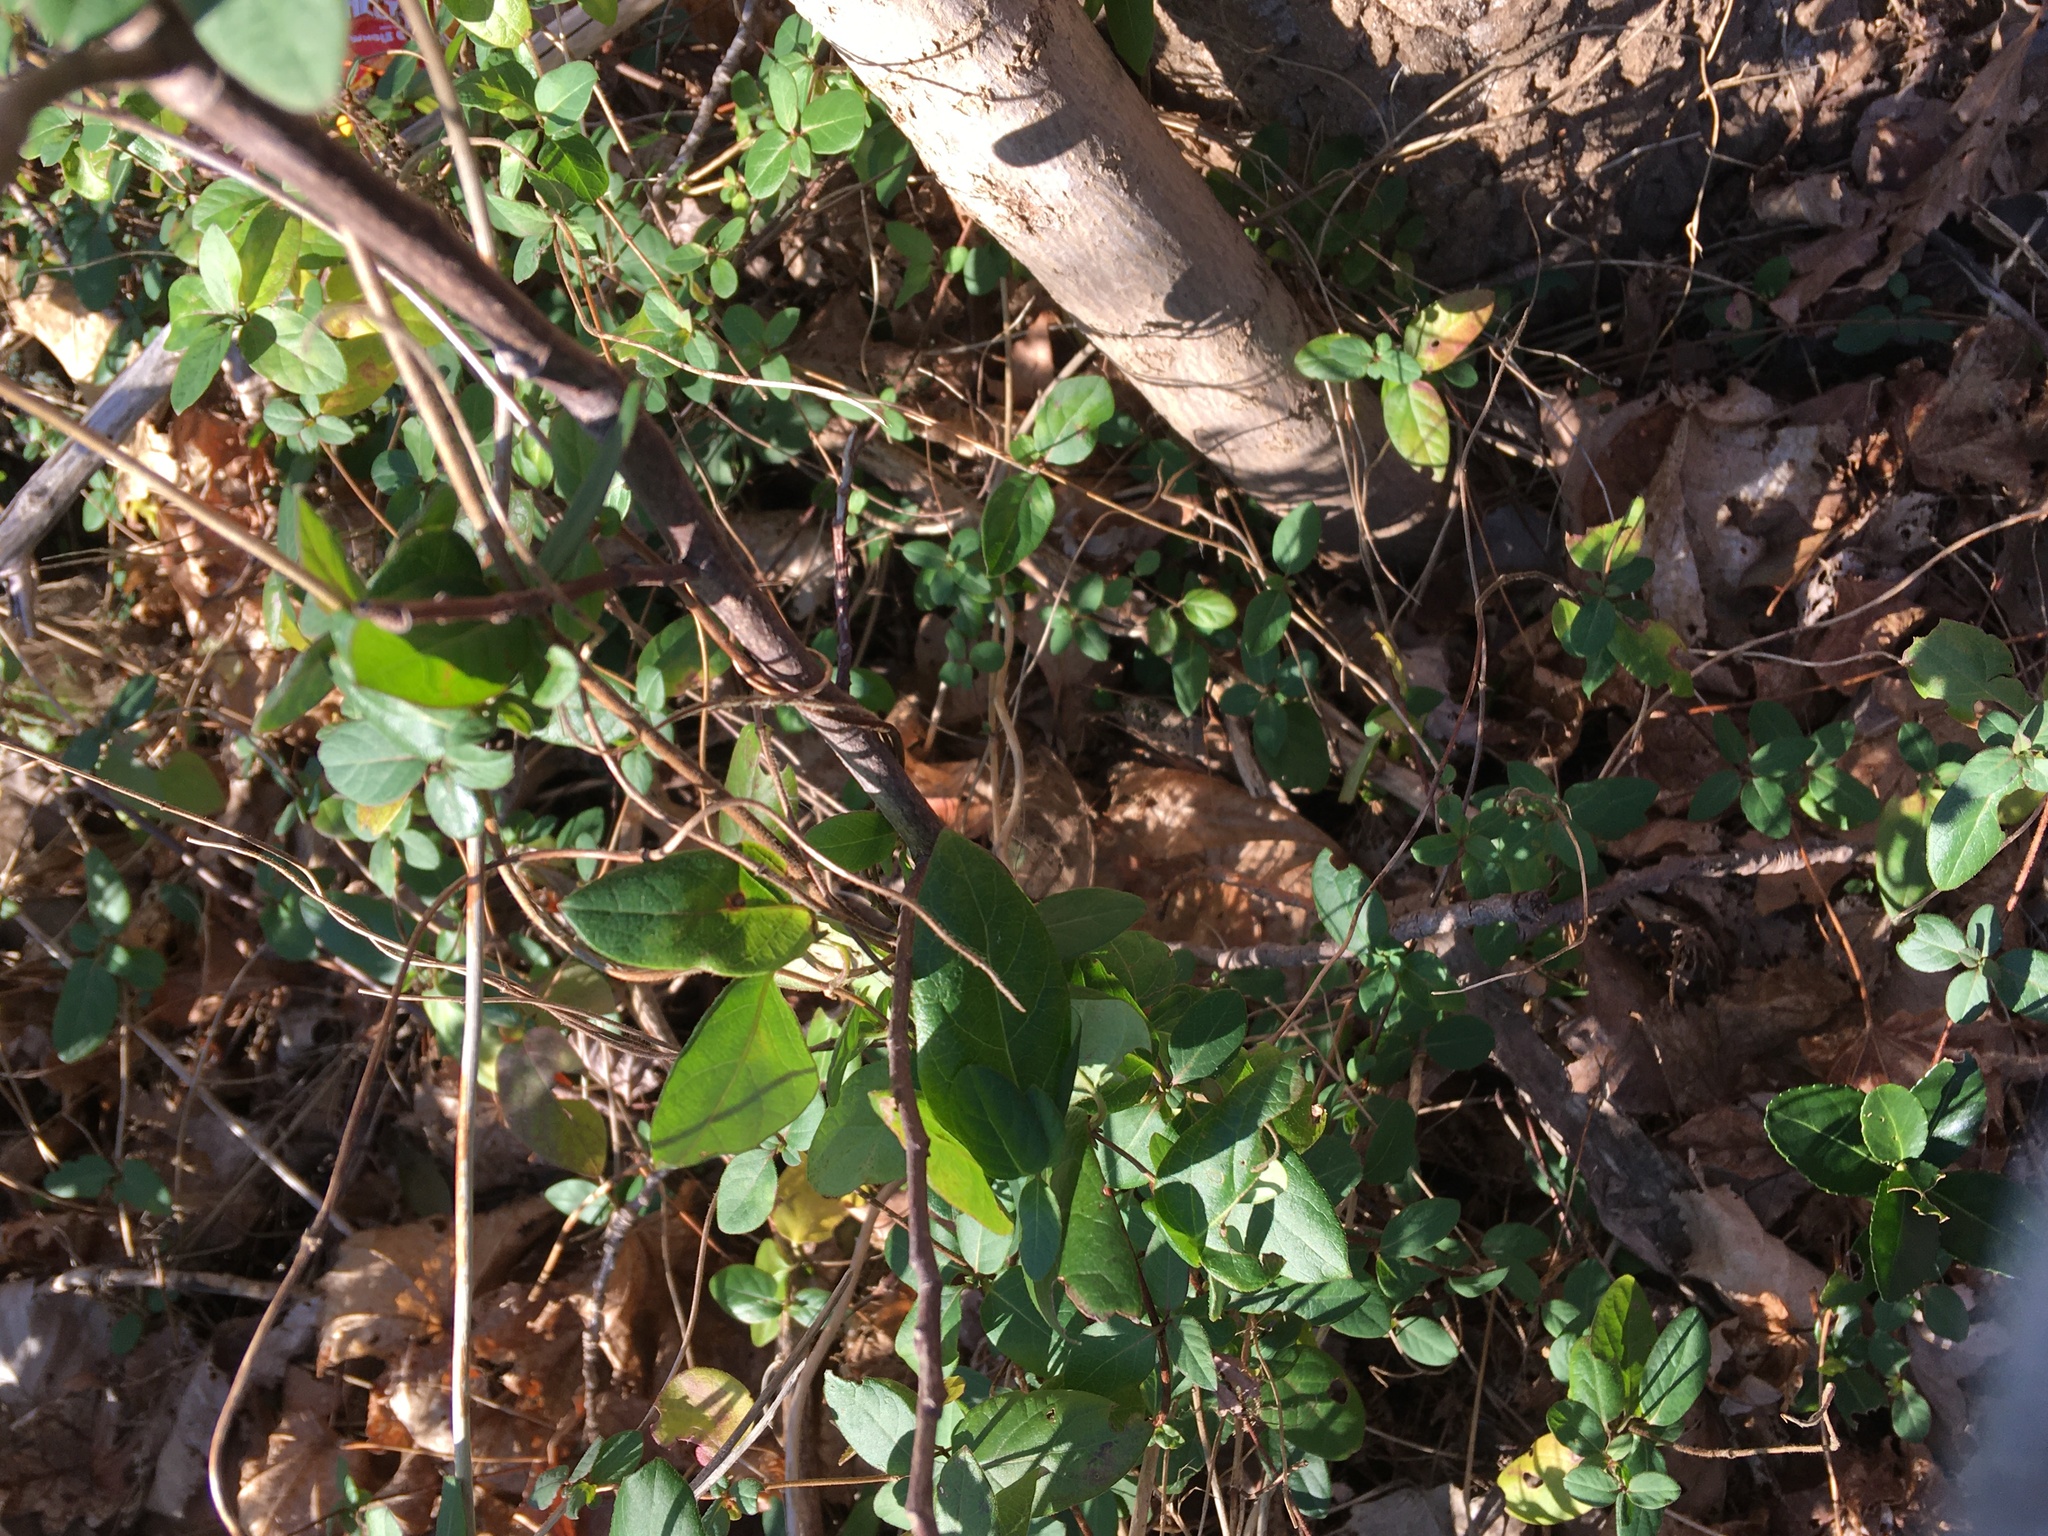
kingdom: Plantae
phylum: Tracheophyta
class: Magnoliopsida
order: Dipsacales
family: Caprifoliaceae
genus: Lonicera
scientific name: Lonicera japonica
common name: Japanese honeysuckle
